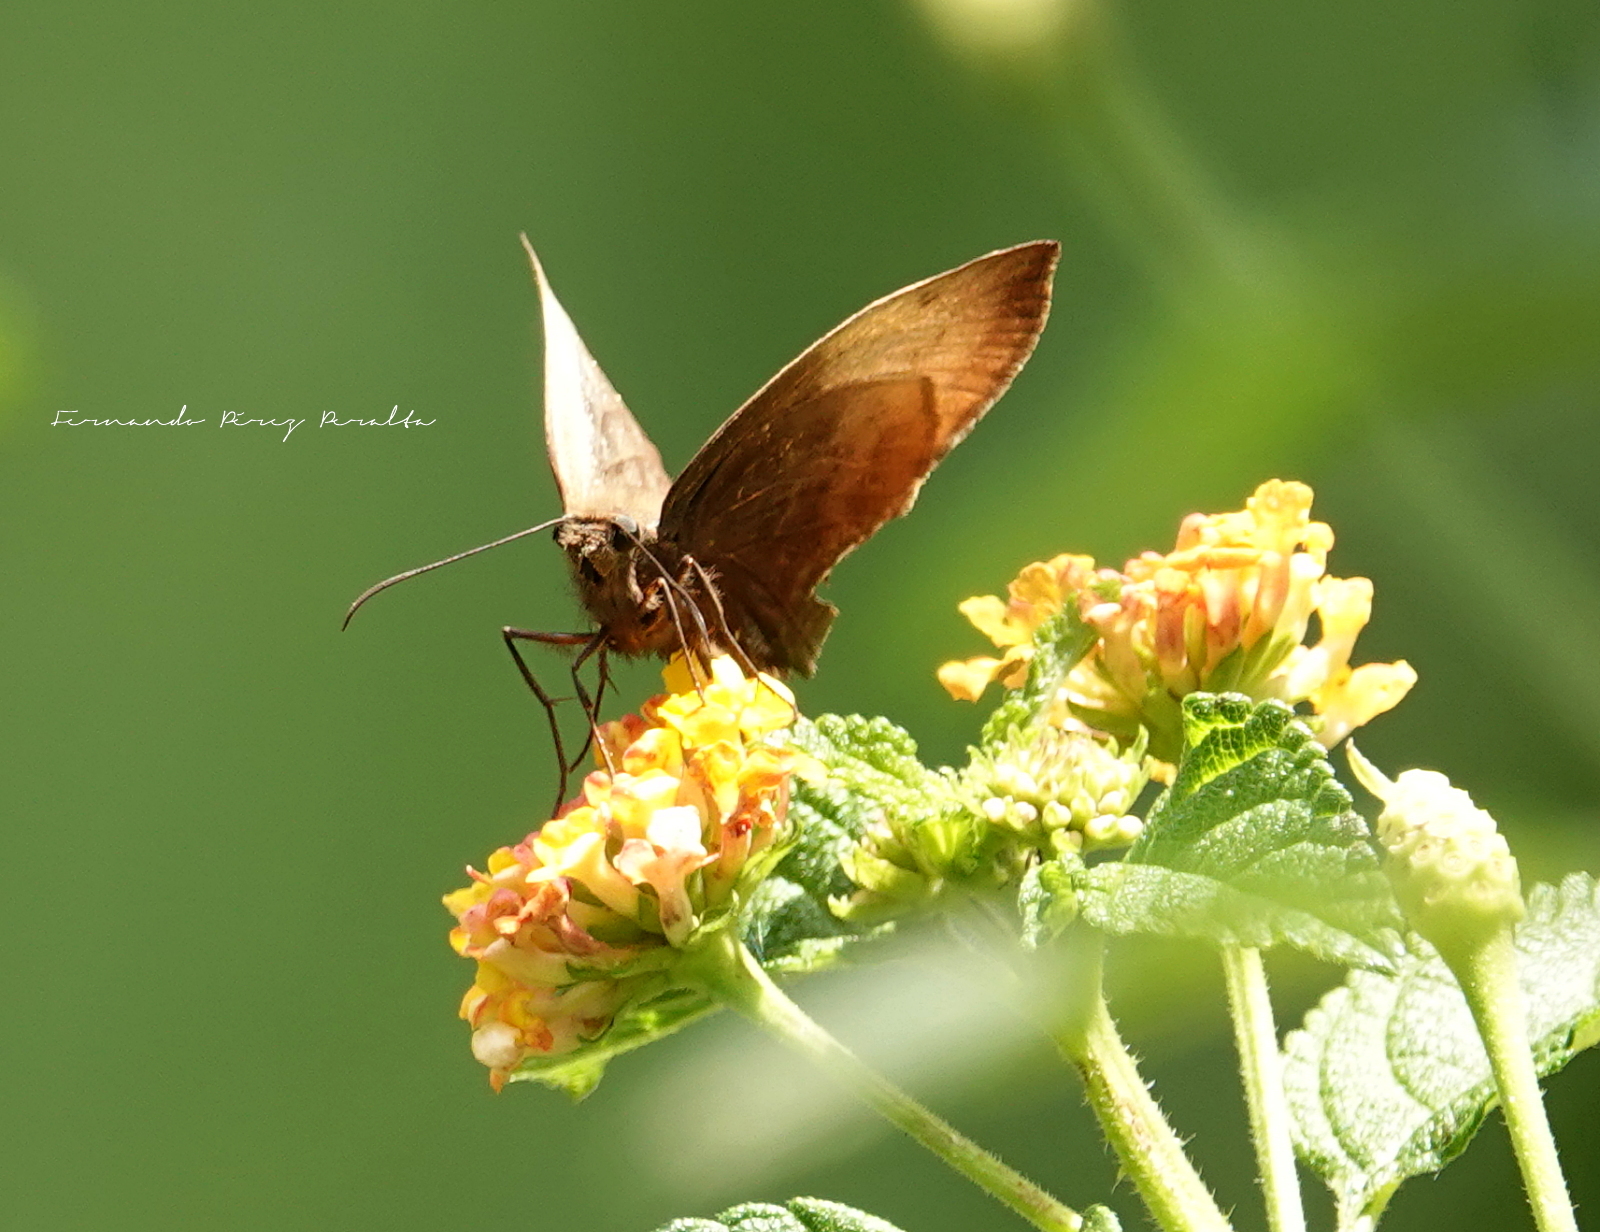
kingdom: Animalia
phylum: Arthropoda
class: Insecta
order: Lepidoptera
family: Hesperiidae
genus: Achlyodes
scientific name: Achlyodes pallida
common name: Pale sicklewing
